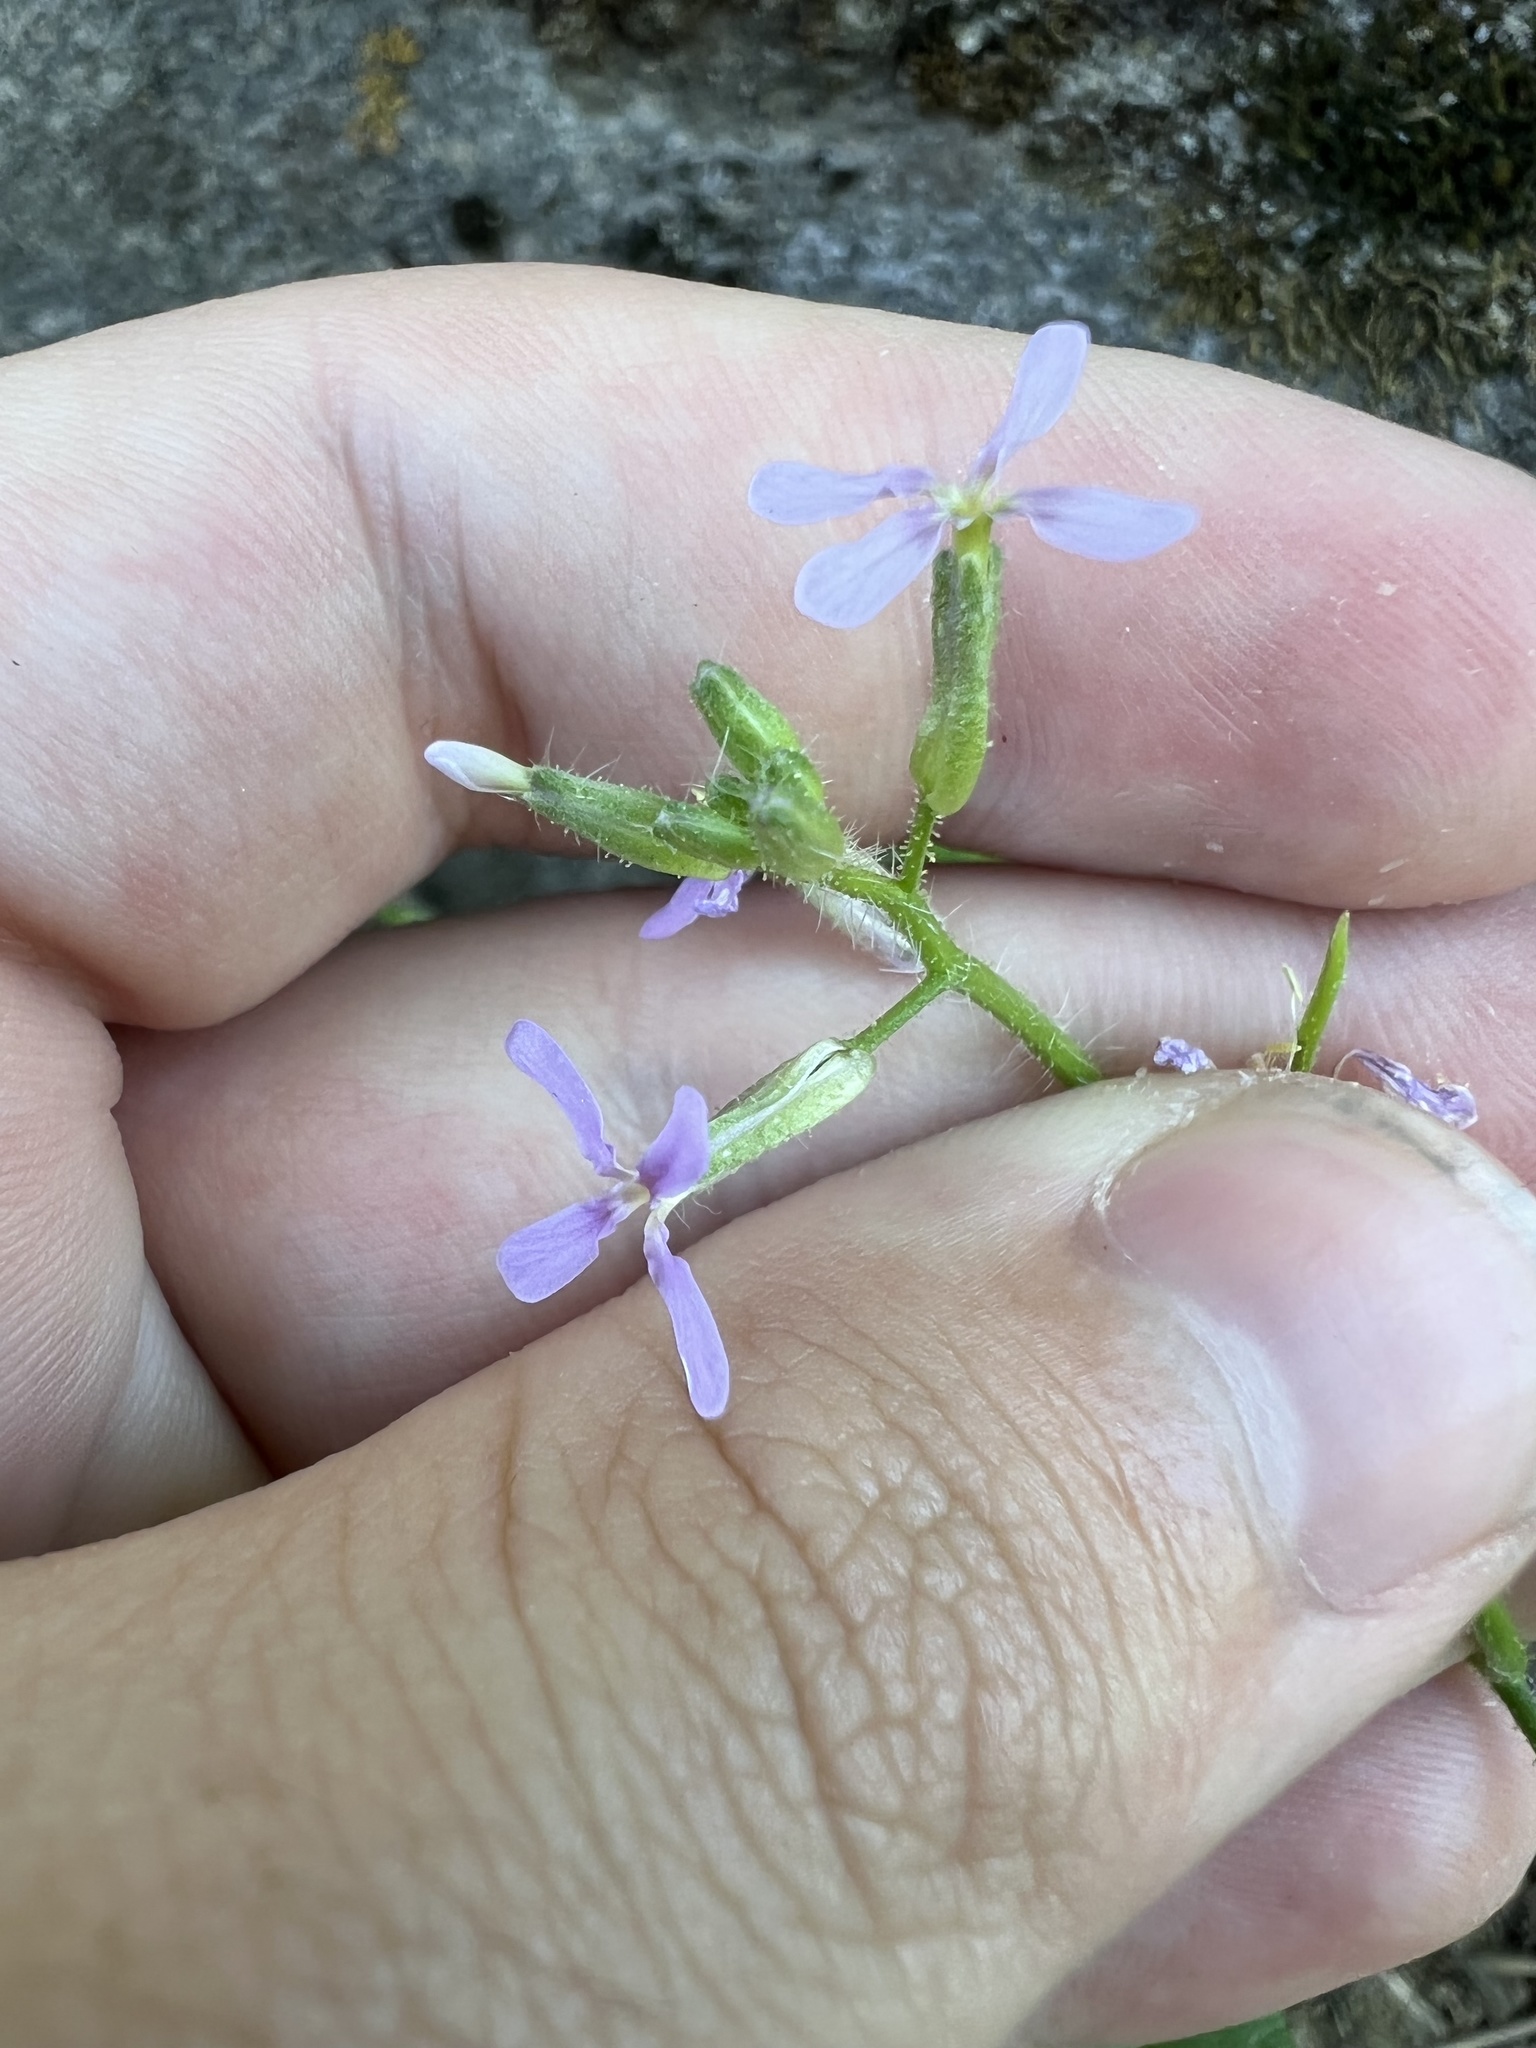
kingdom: Plantae
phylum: Tracheophyta
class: Magnoliopsida
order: Brassicales
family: Brassicaceae
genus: Chorispora
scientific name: Chorispora tenella
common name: Crossflower
